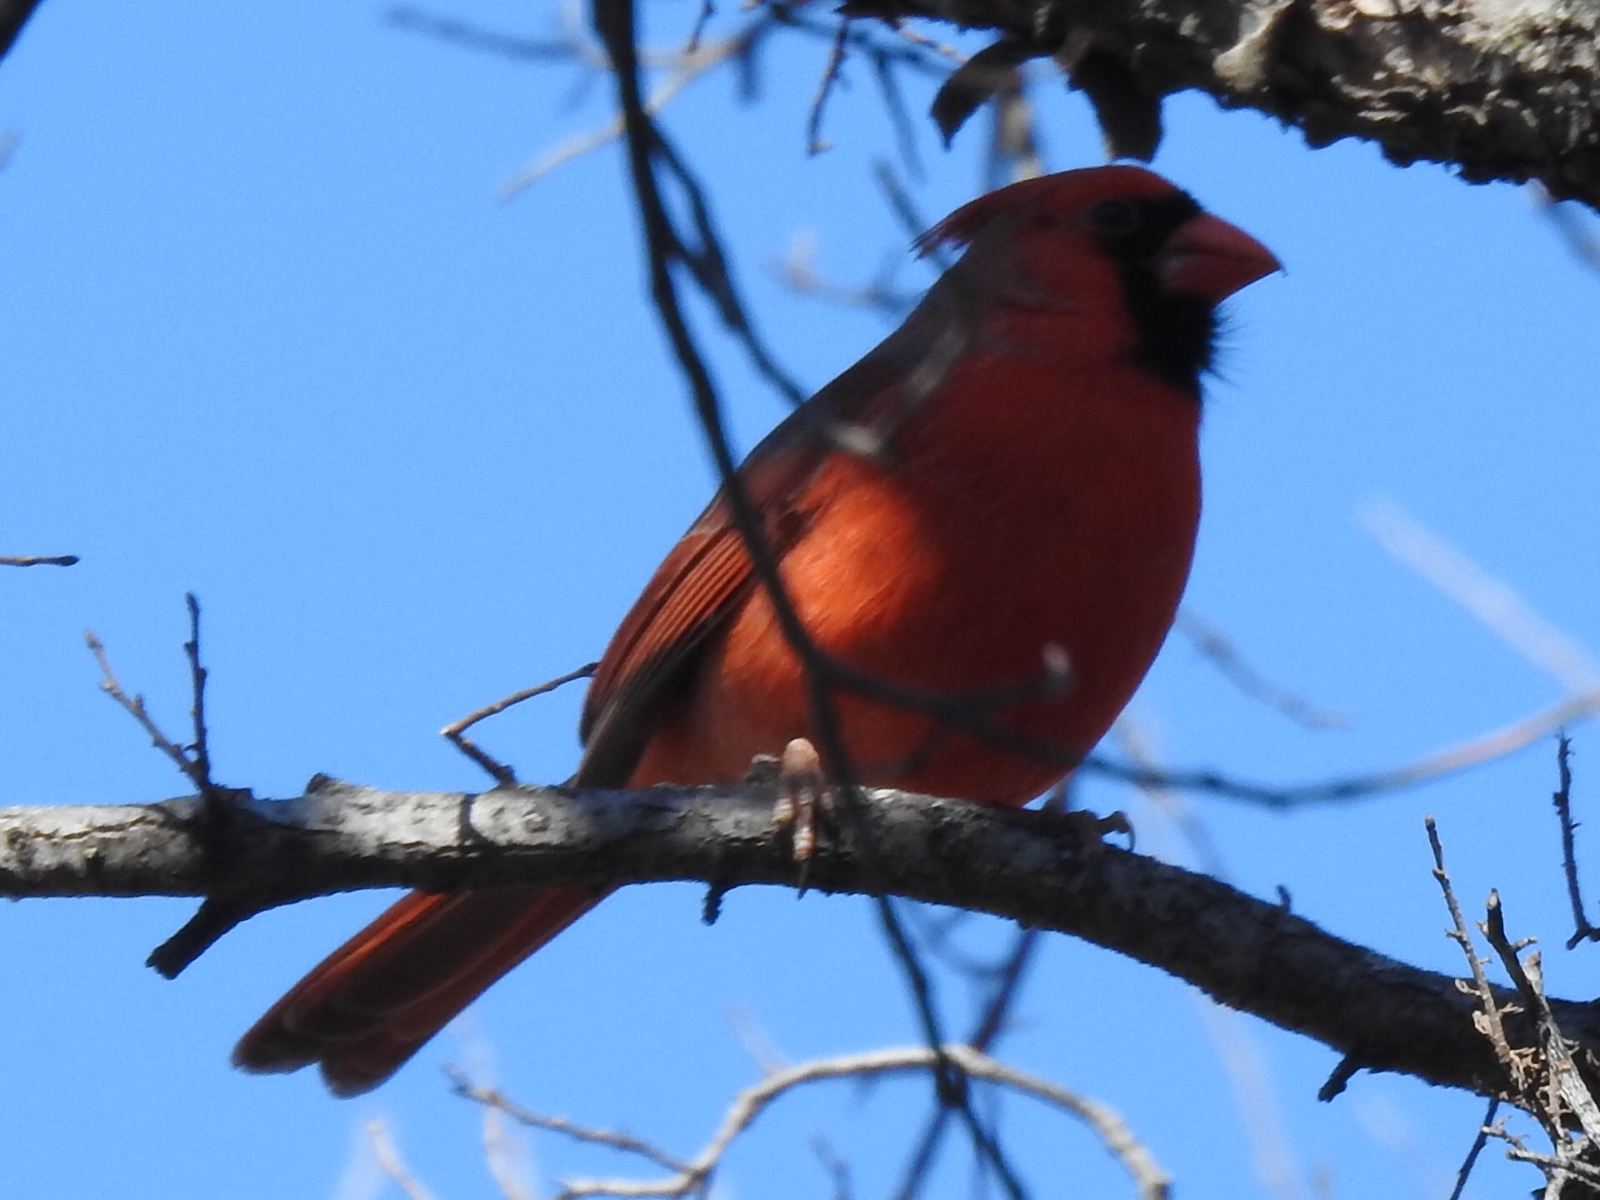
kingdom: Animalia
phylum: Chordata
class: Aves
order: Passeriformes
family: Cardinalidae
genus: Cardinalis
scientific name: Cardinalis cardinalis
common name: Northern cardinal
